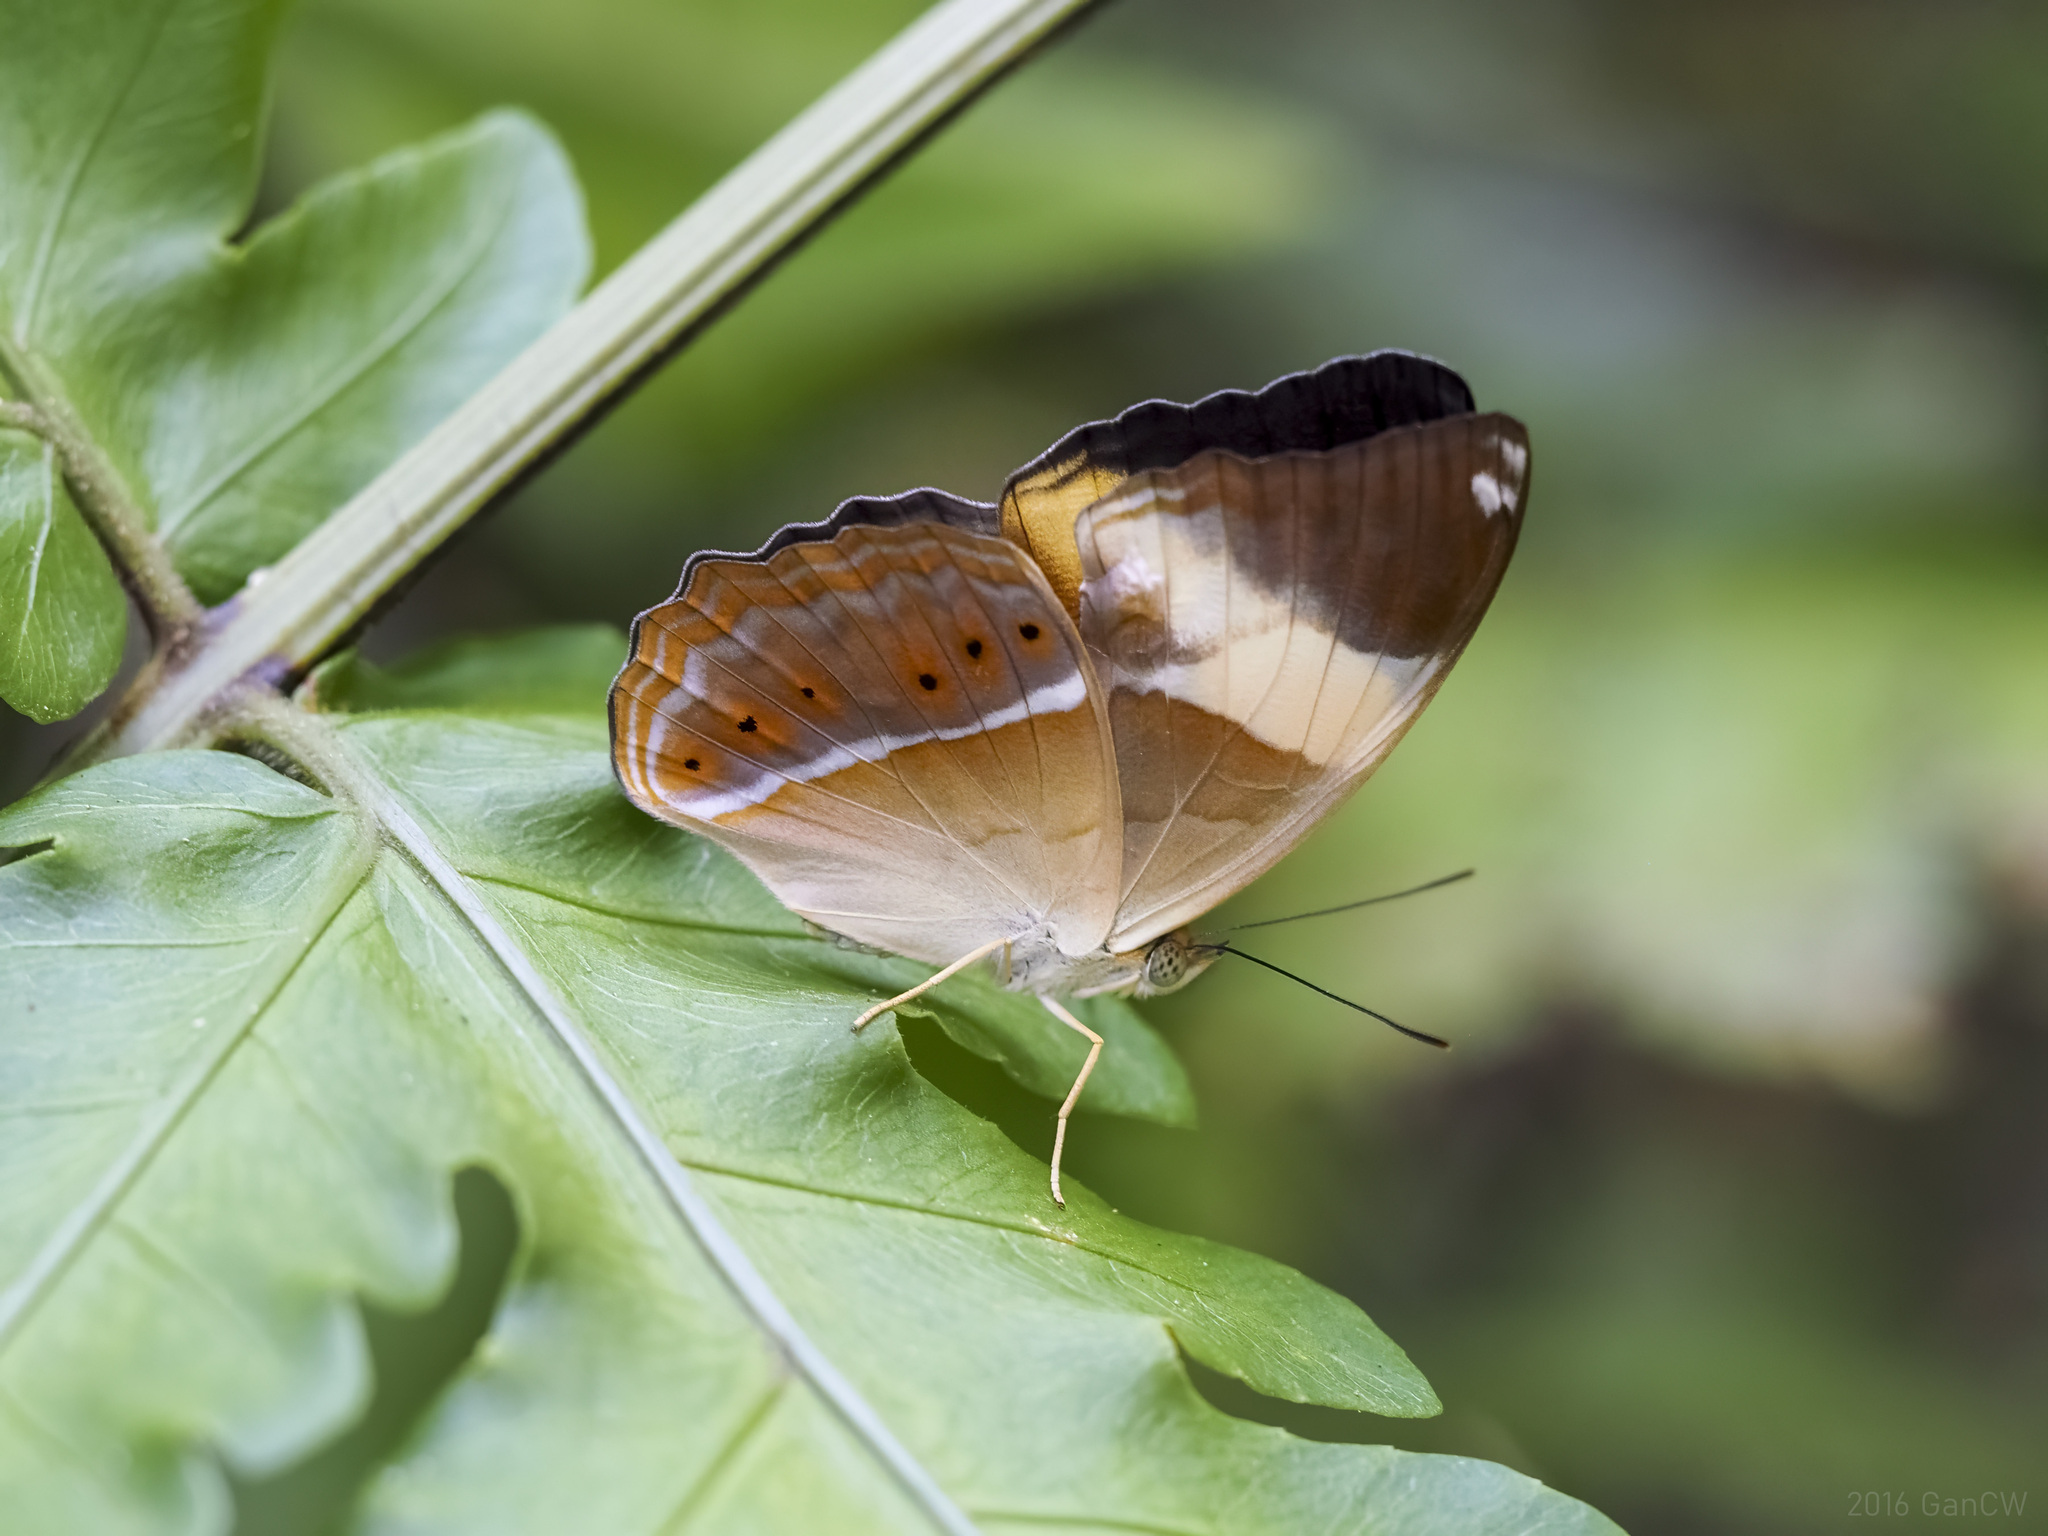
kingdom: Animalia
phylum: Arthropoda
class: Insecta
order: Lepidoptera
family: Nymphalidae
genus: Cirrochroa
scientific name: Cirrochroa orissa
